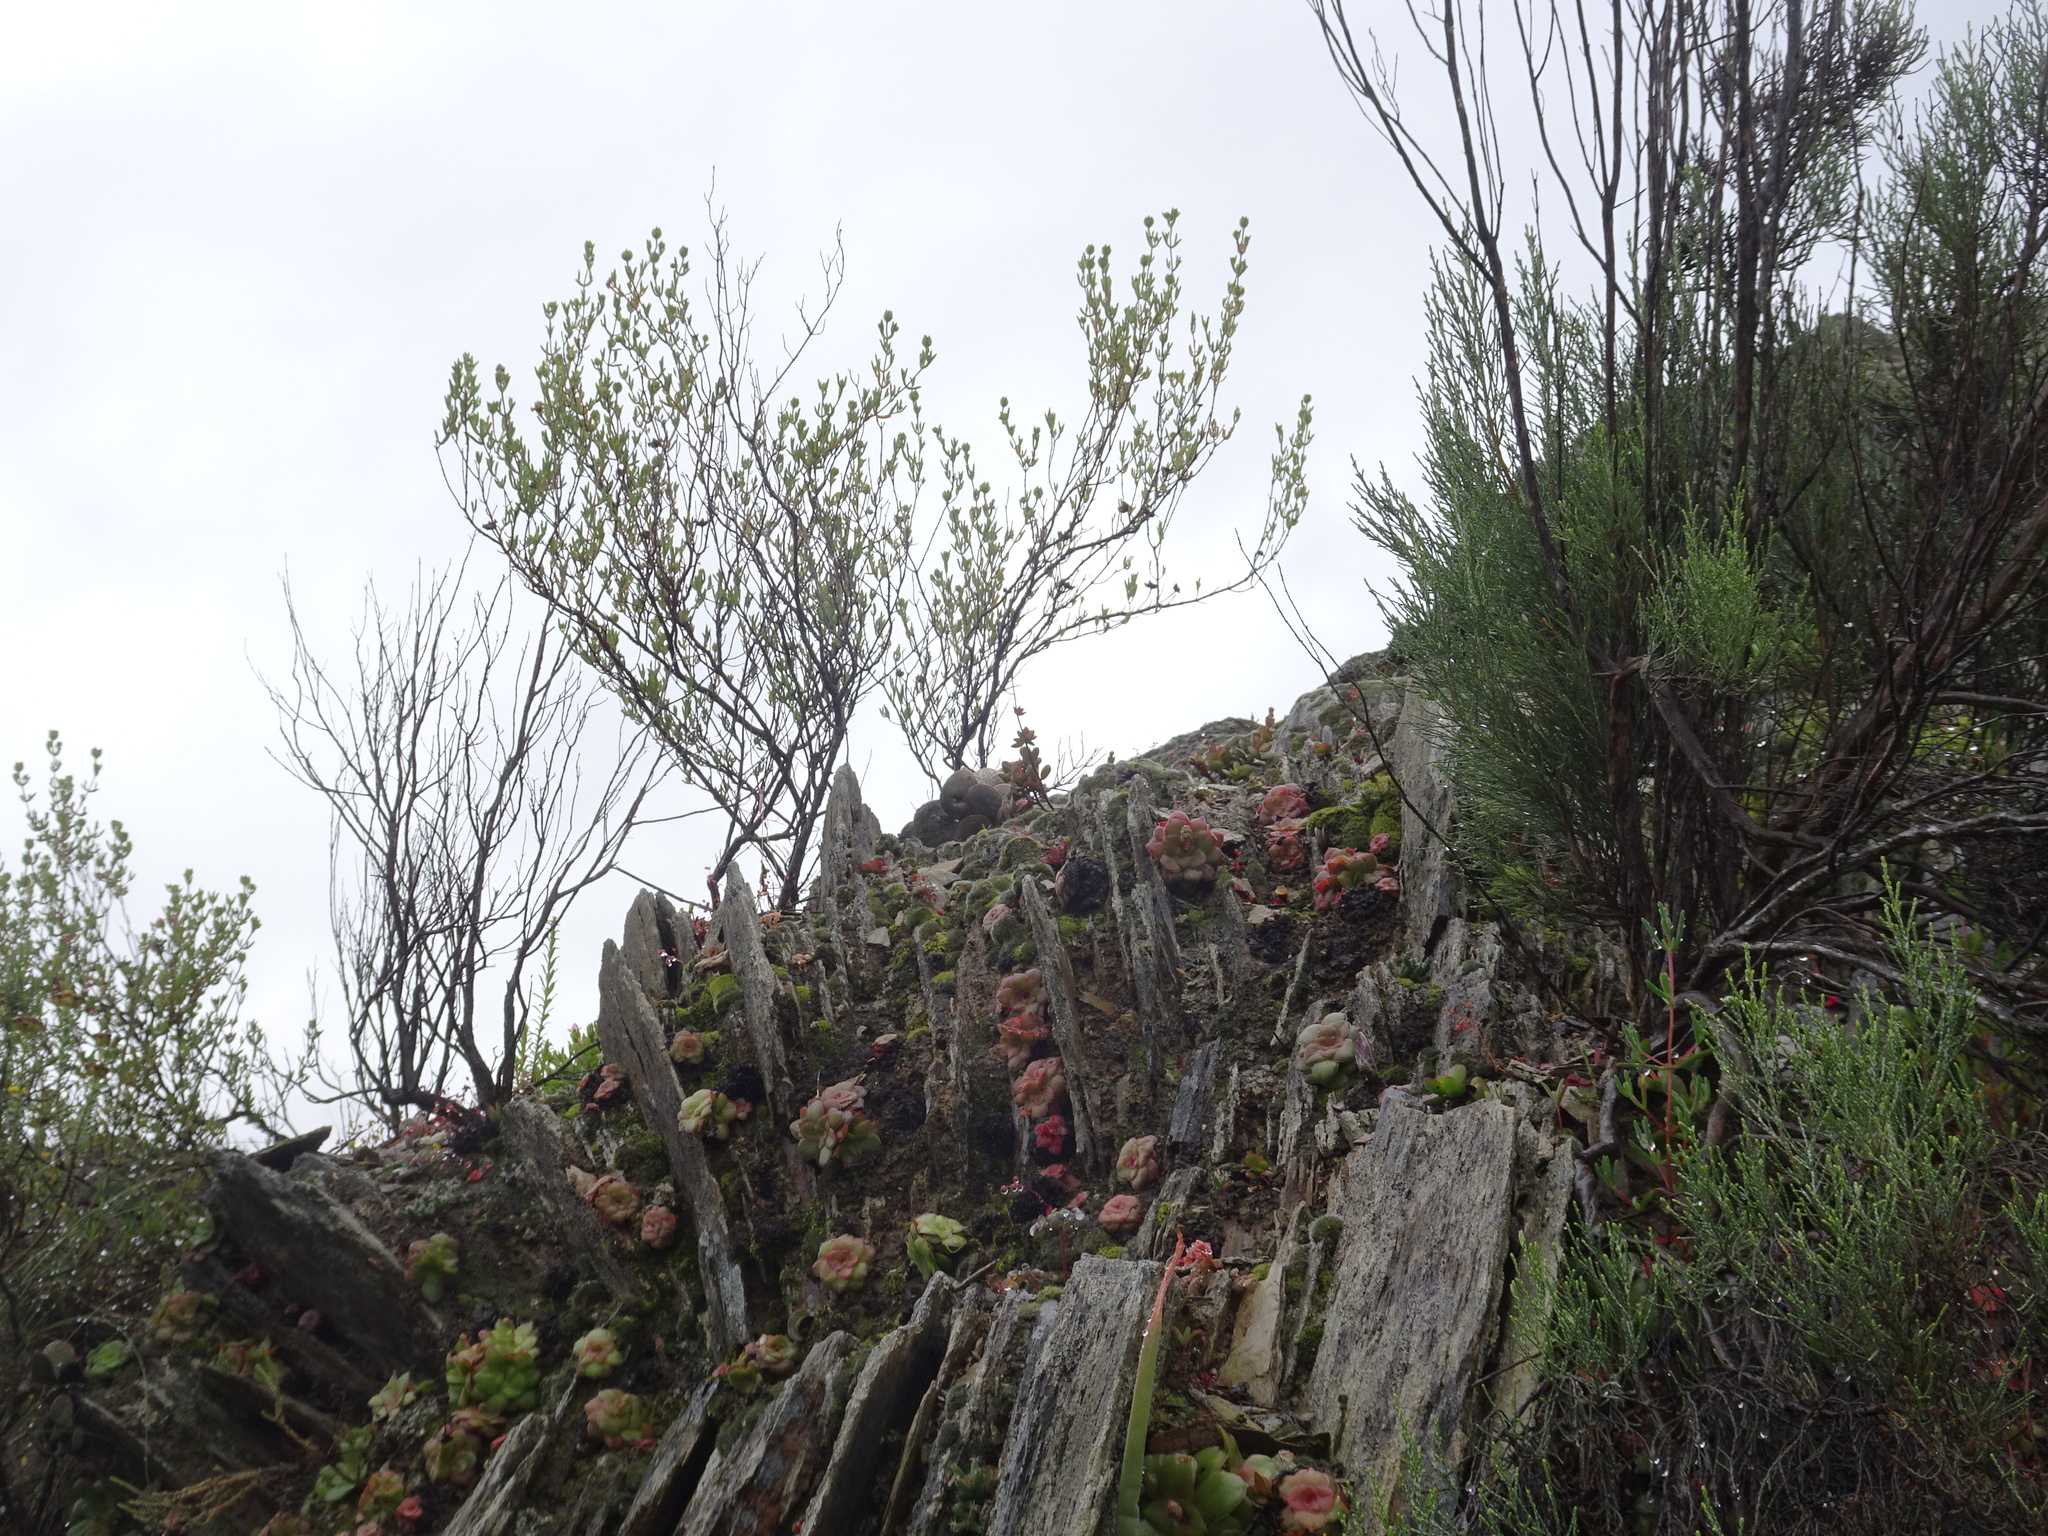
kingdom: Plantae
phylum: Tracheophyta
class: Magnoliopsida
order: Saxifragales
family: Crassulaceae
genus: Crassula
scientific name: Crassula orbicularis
